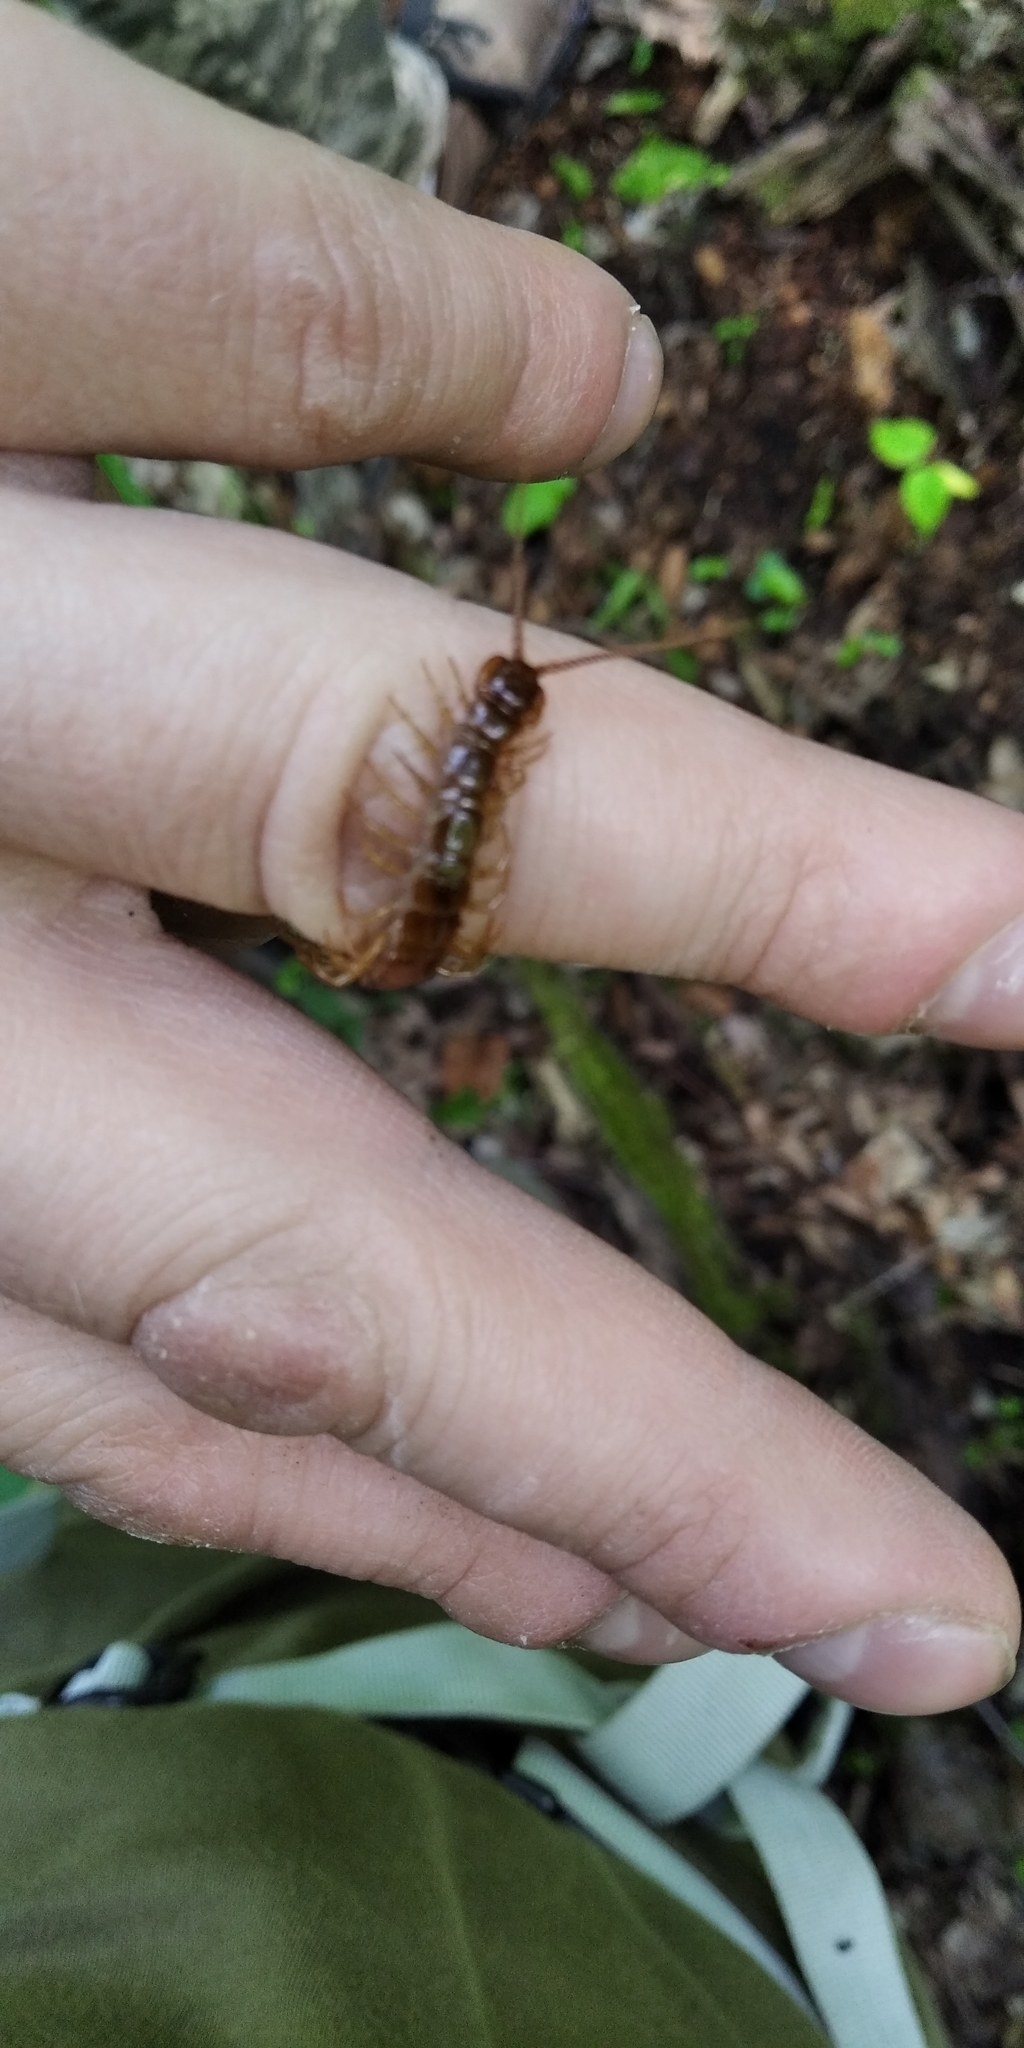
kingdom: Animalia
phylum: Arthropoda
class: Chilopoda
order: Lithobiomorpha
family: Lithobiidae
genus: Lithobius
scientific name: Lithobius forficatus
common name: Centipede
